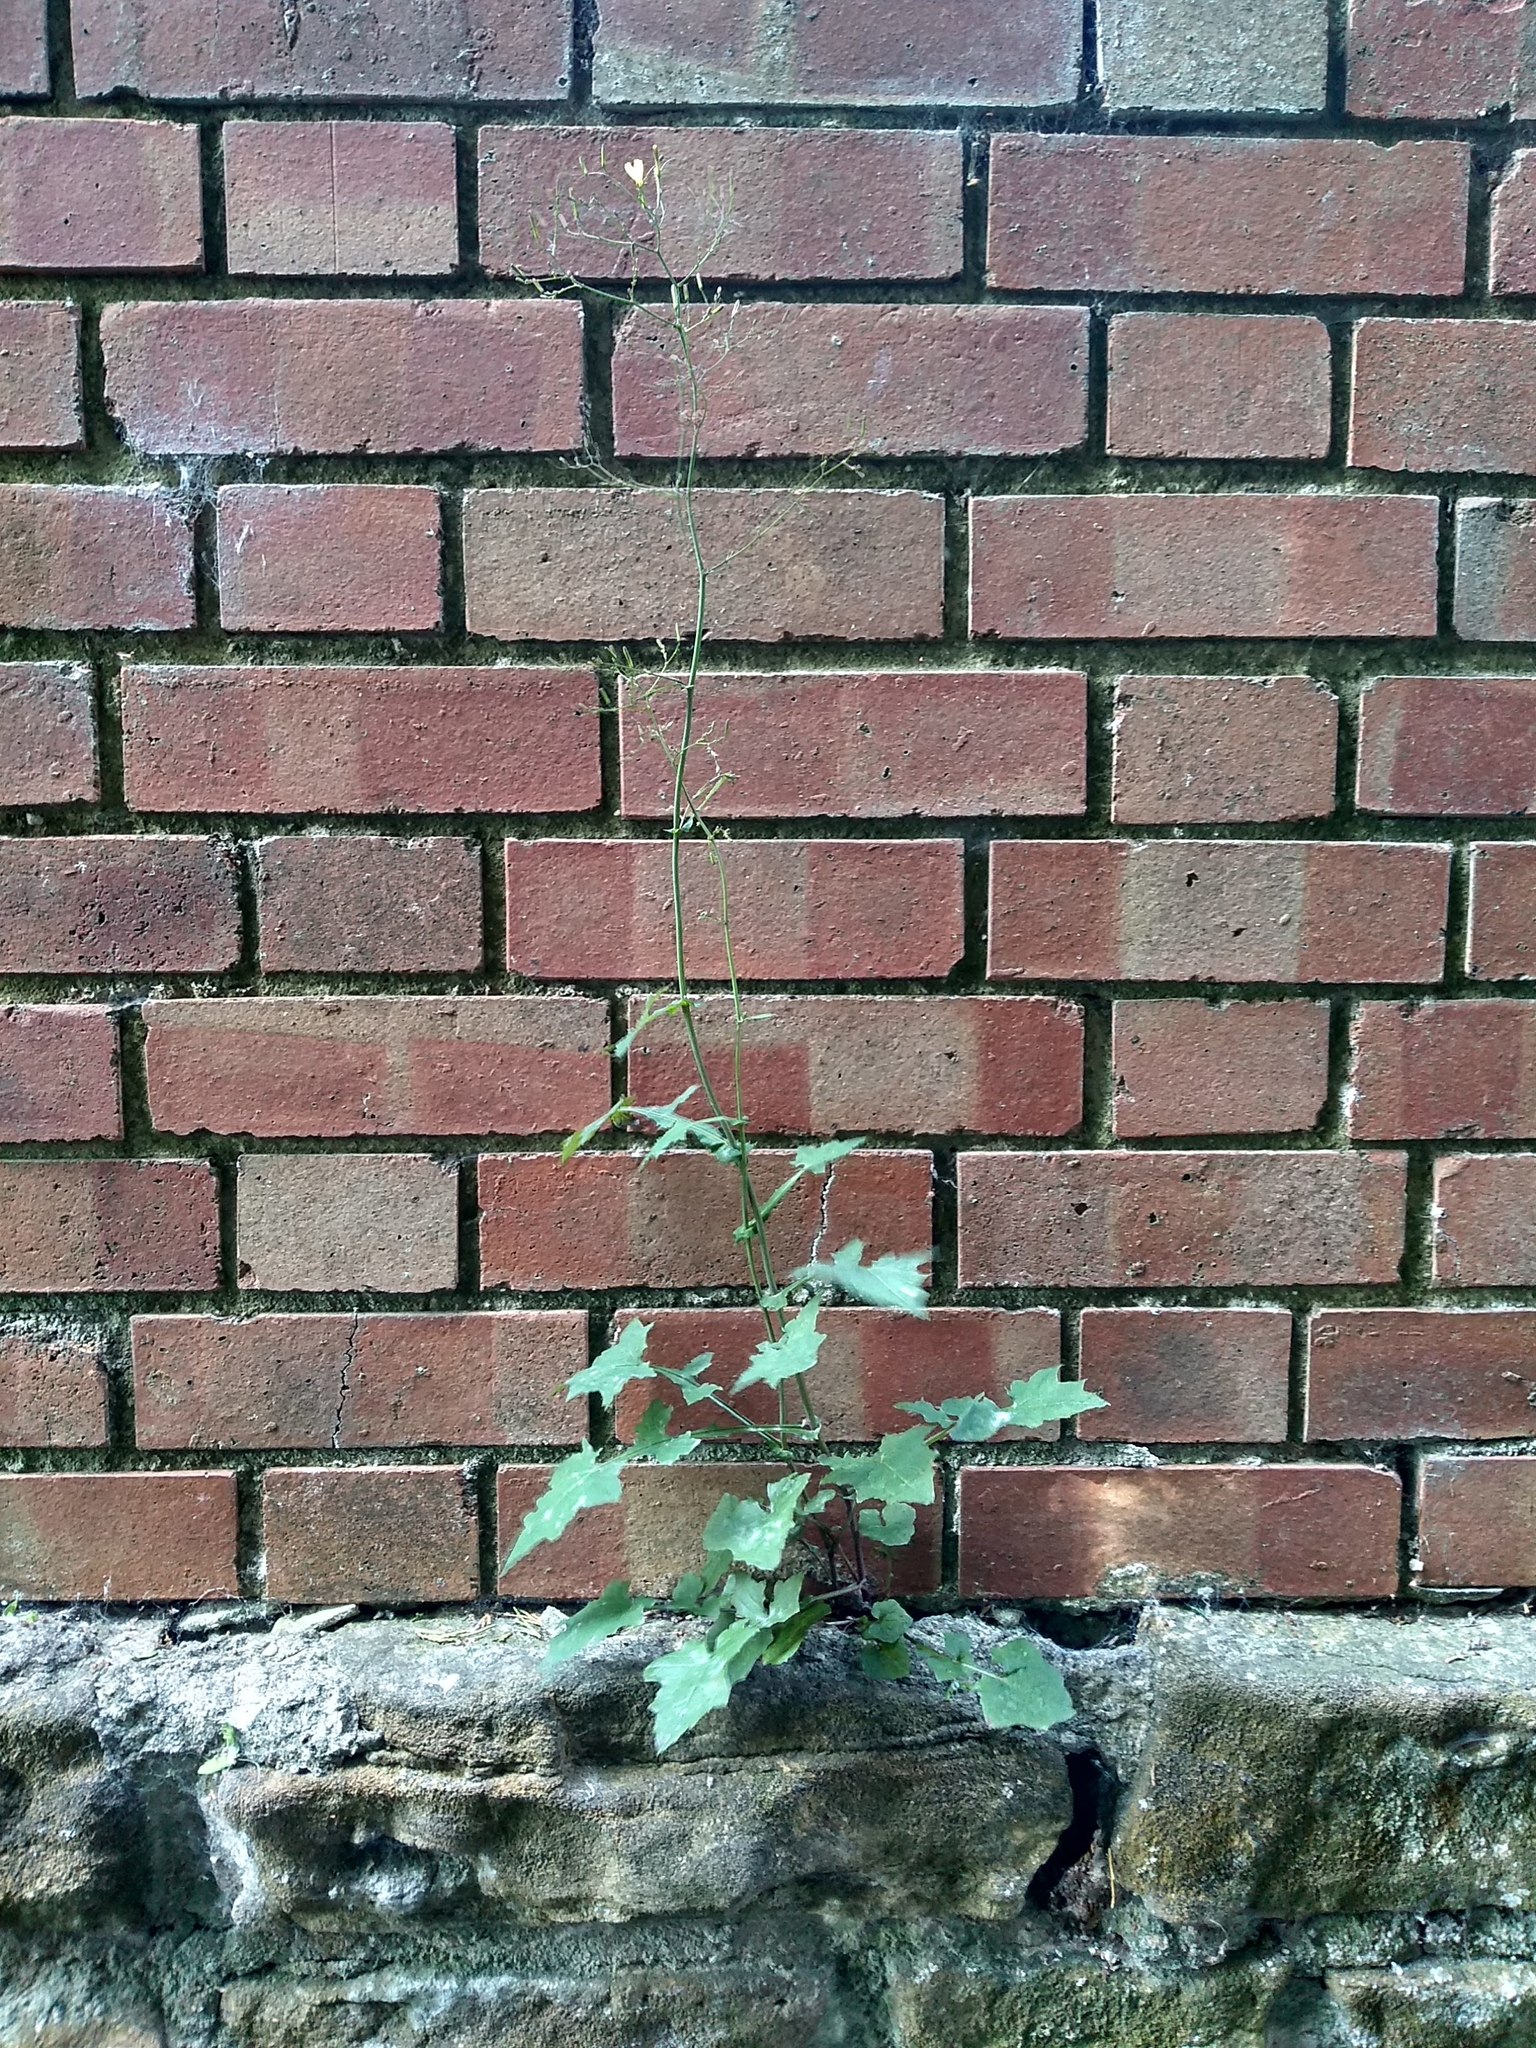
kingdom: Plantae
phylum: Tracheophyta
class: Magnoliopsida
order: Asterales
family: Asteraceae
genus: Mycelis
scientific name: Mycelis muralis
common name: Wall lettuce
